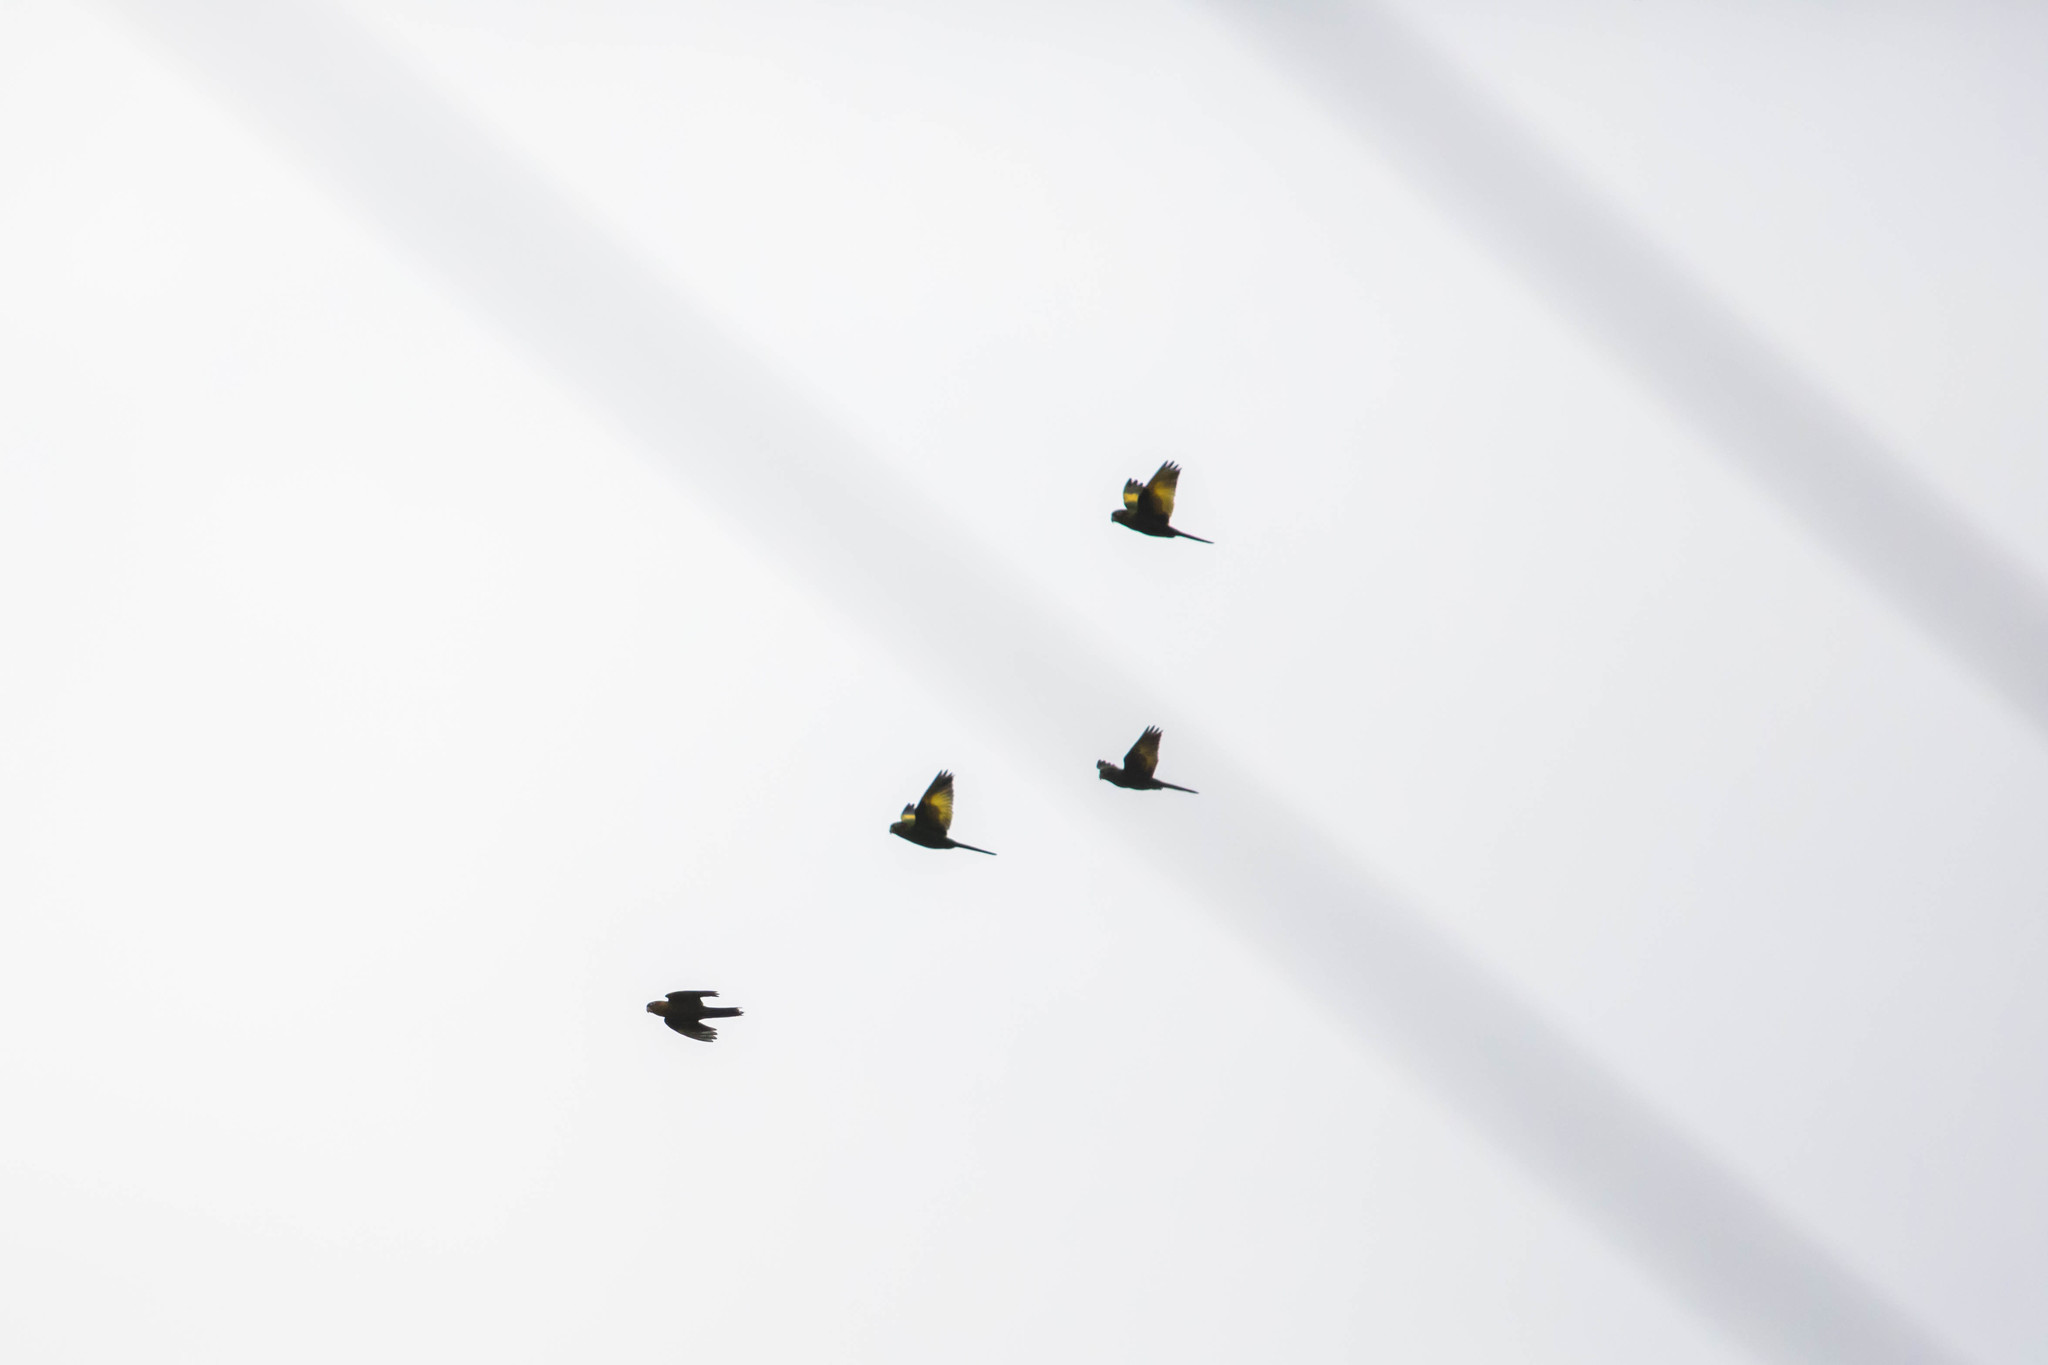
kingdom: Animalia
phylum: Chordata
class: Aves
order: Psittaciformes
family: Psittacidae
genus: Pyrrhura
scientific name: Pyrrhura hoffmanni
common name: Sulphur-winged parakeet
